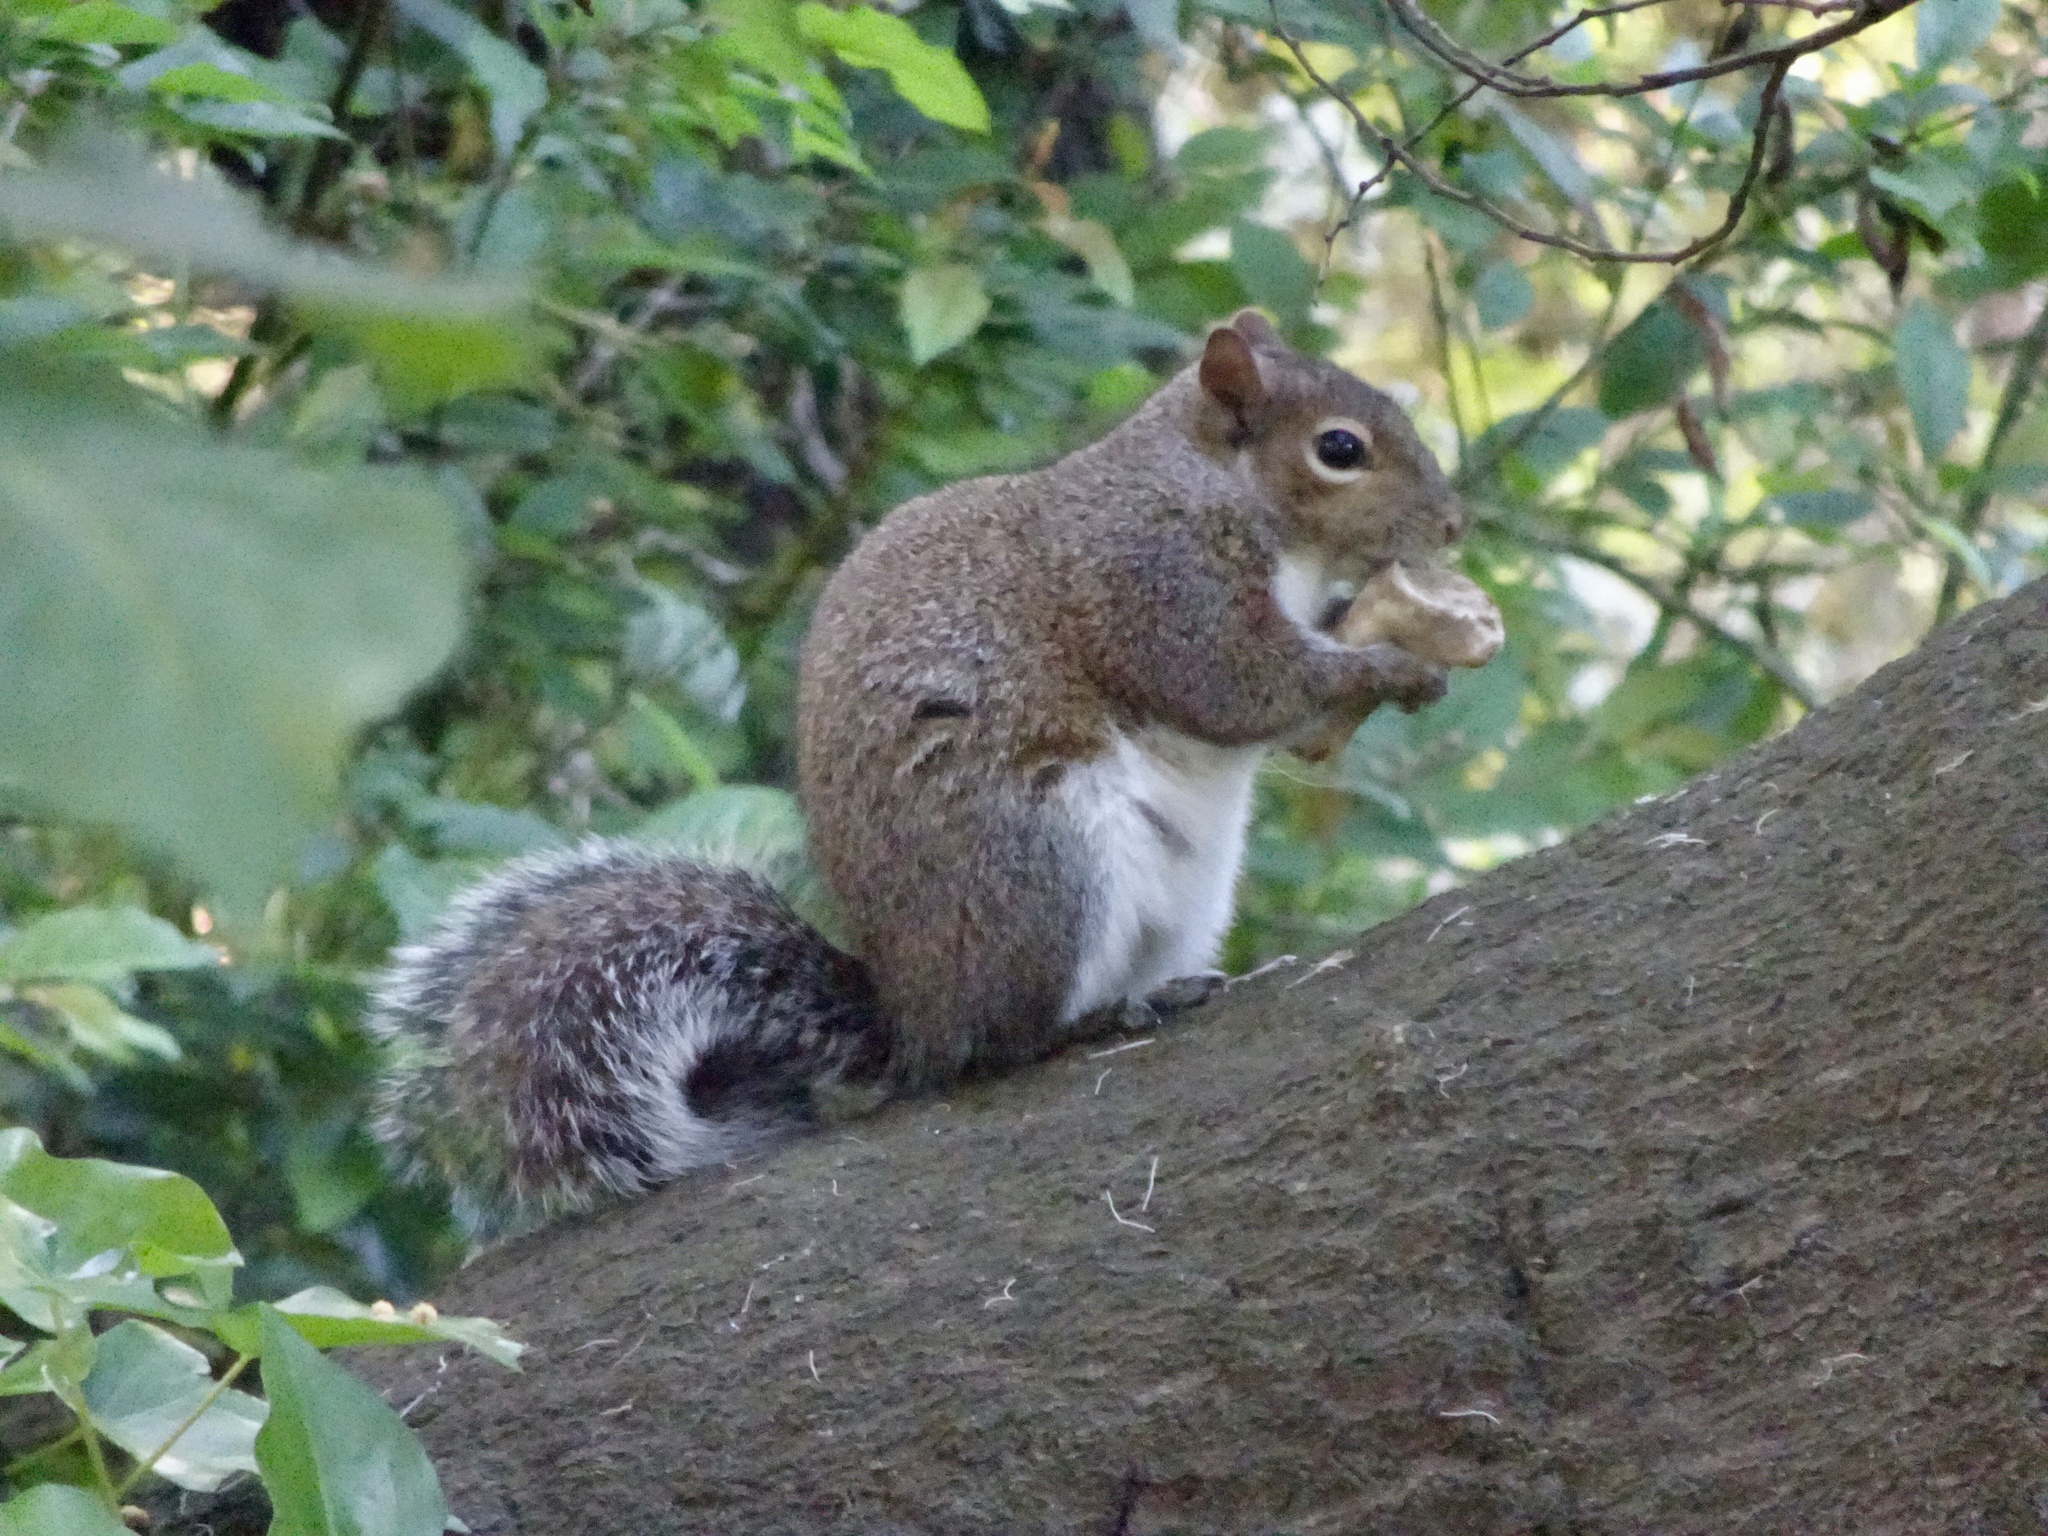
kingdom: Animalia
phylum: Chordata
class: Mammalia
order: Rodentia
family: Sciuridae
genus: Sciurus
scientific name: Sciurus carolinensis
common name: Eastern gray squirrel
